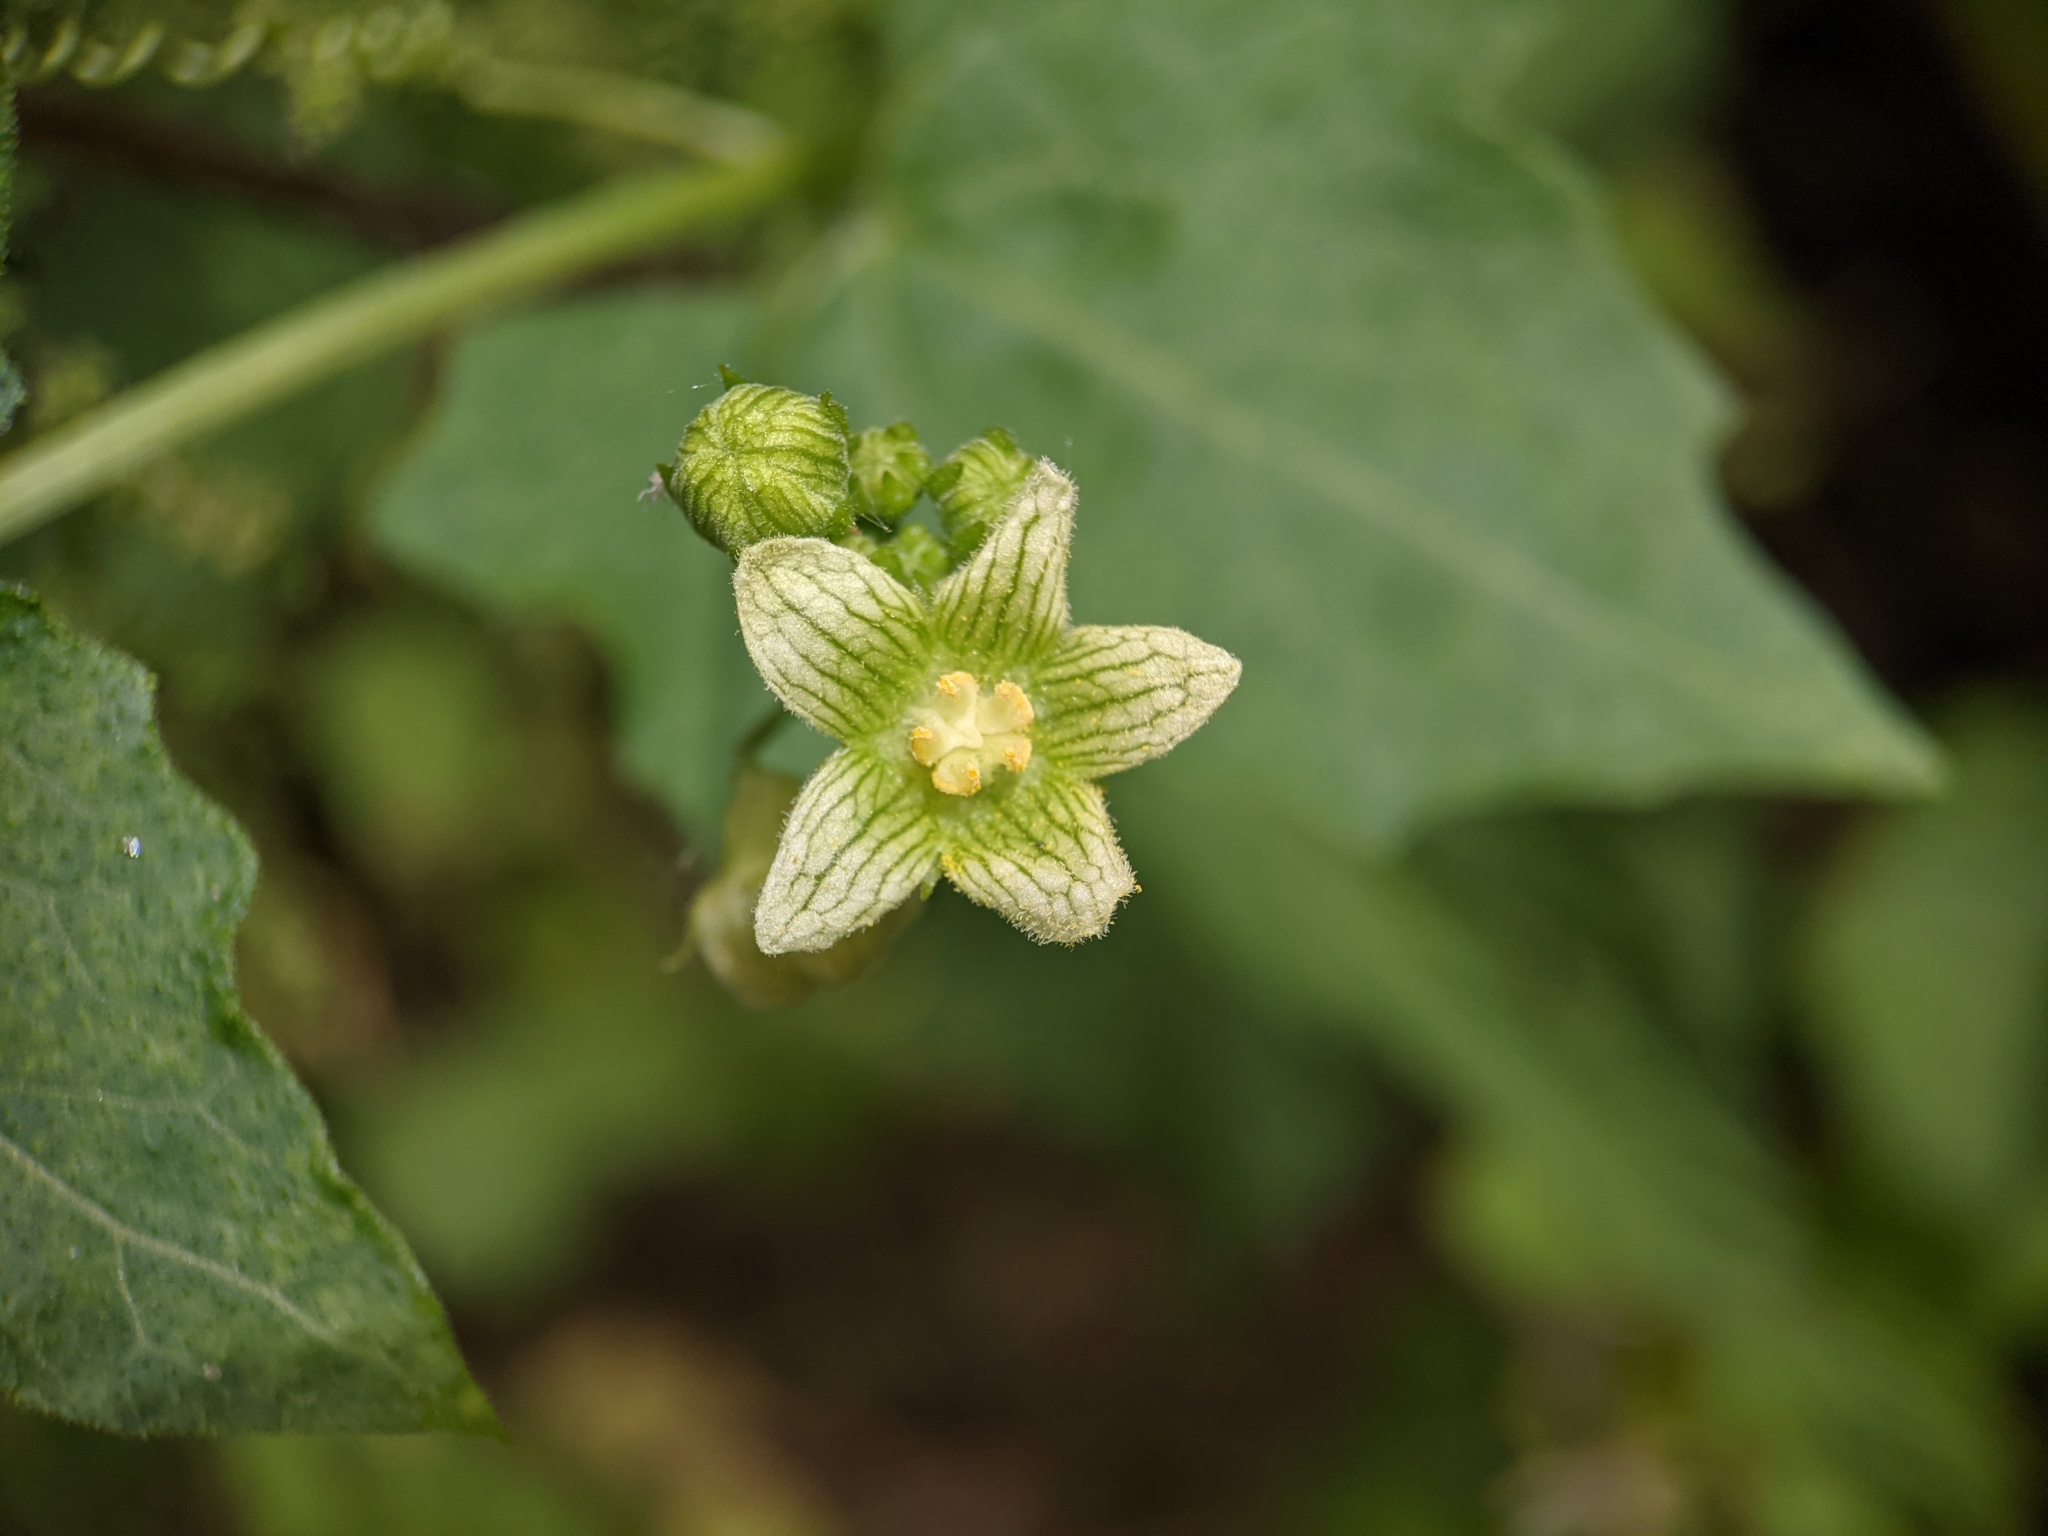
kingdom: Plantae
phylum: Tracheophyta
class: Magnoliopsida
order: Cucurbitales
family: Cucurbitaceae
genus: Bryonia
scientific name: Bryonia cretica
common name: Cretan bryony
